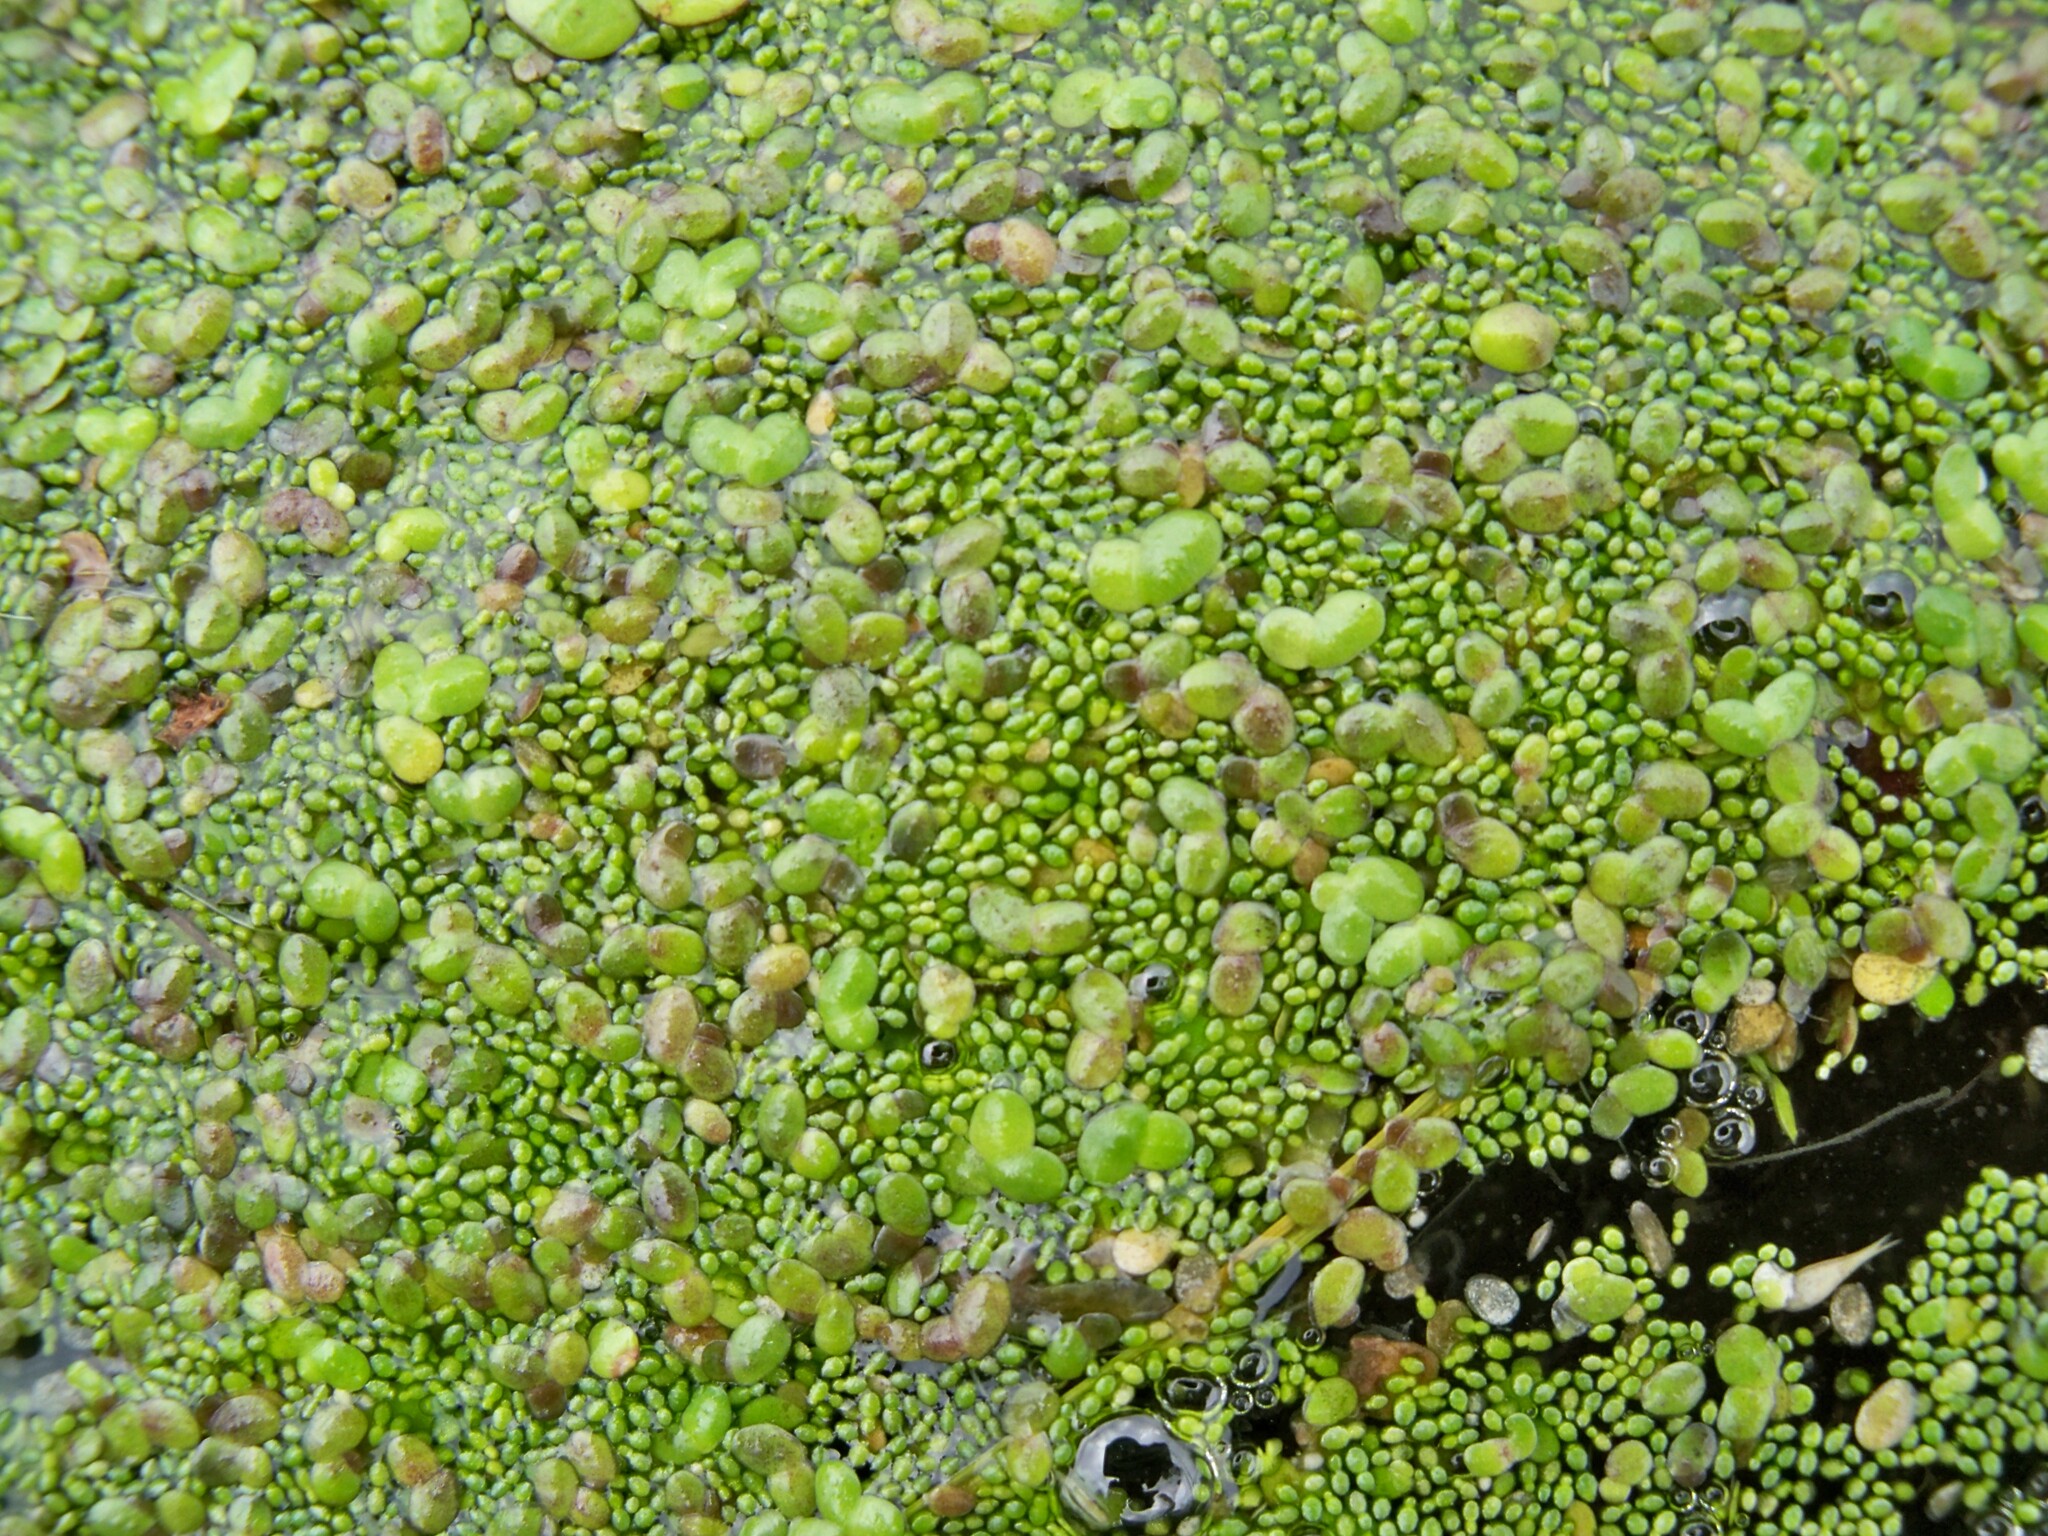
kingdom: Plantae
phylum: Tracheophyta
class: Liliopsida
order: Alismatales
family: Araceae
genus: Wolffia
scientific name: Wolffia arrhiza
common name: Rootless duckweed
